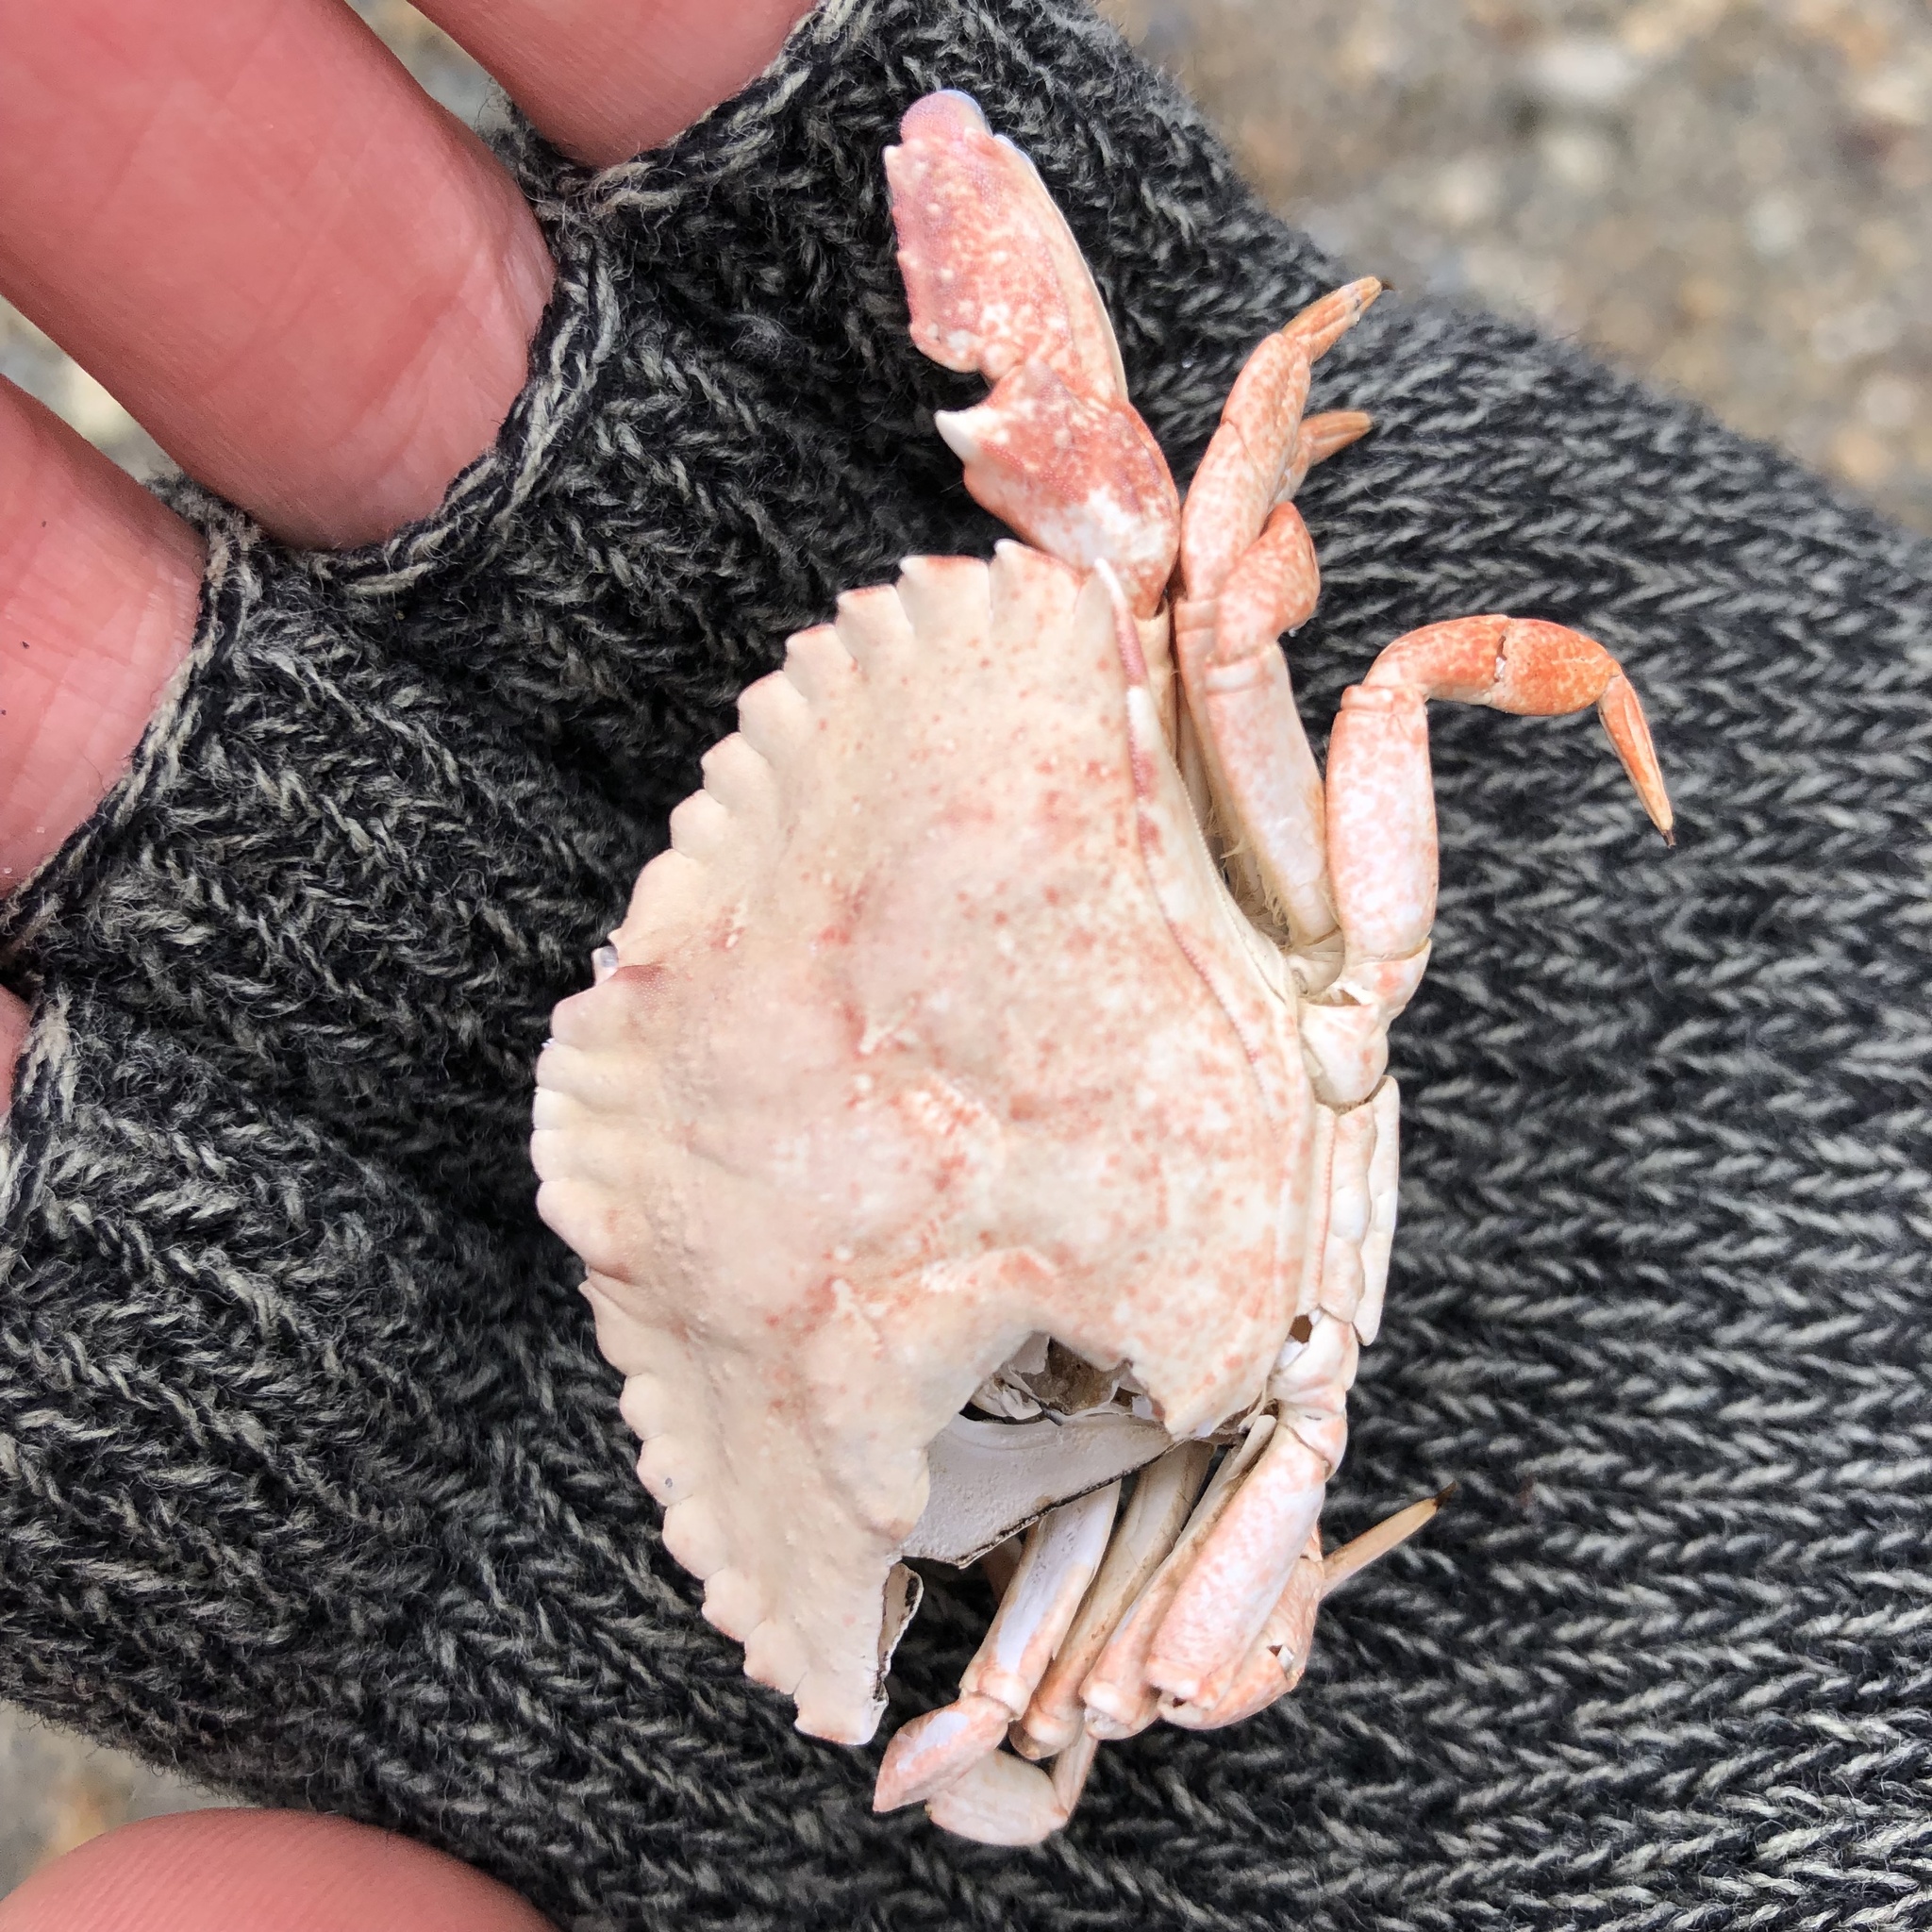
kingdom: Animalia
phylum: Arthropoda
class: Malacostraca
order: Decapoda
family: Cancridae
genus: Cancer
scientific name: Cancer productus
